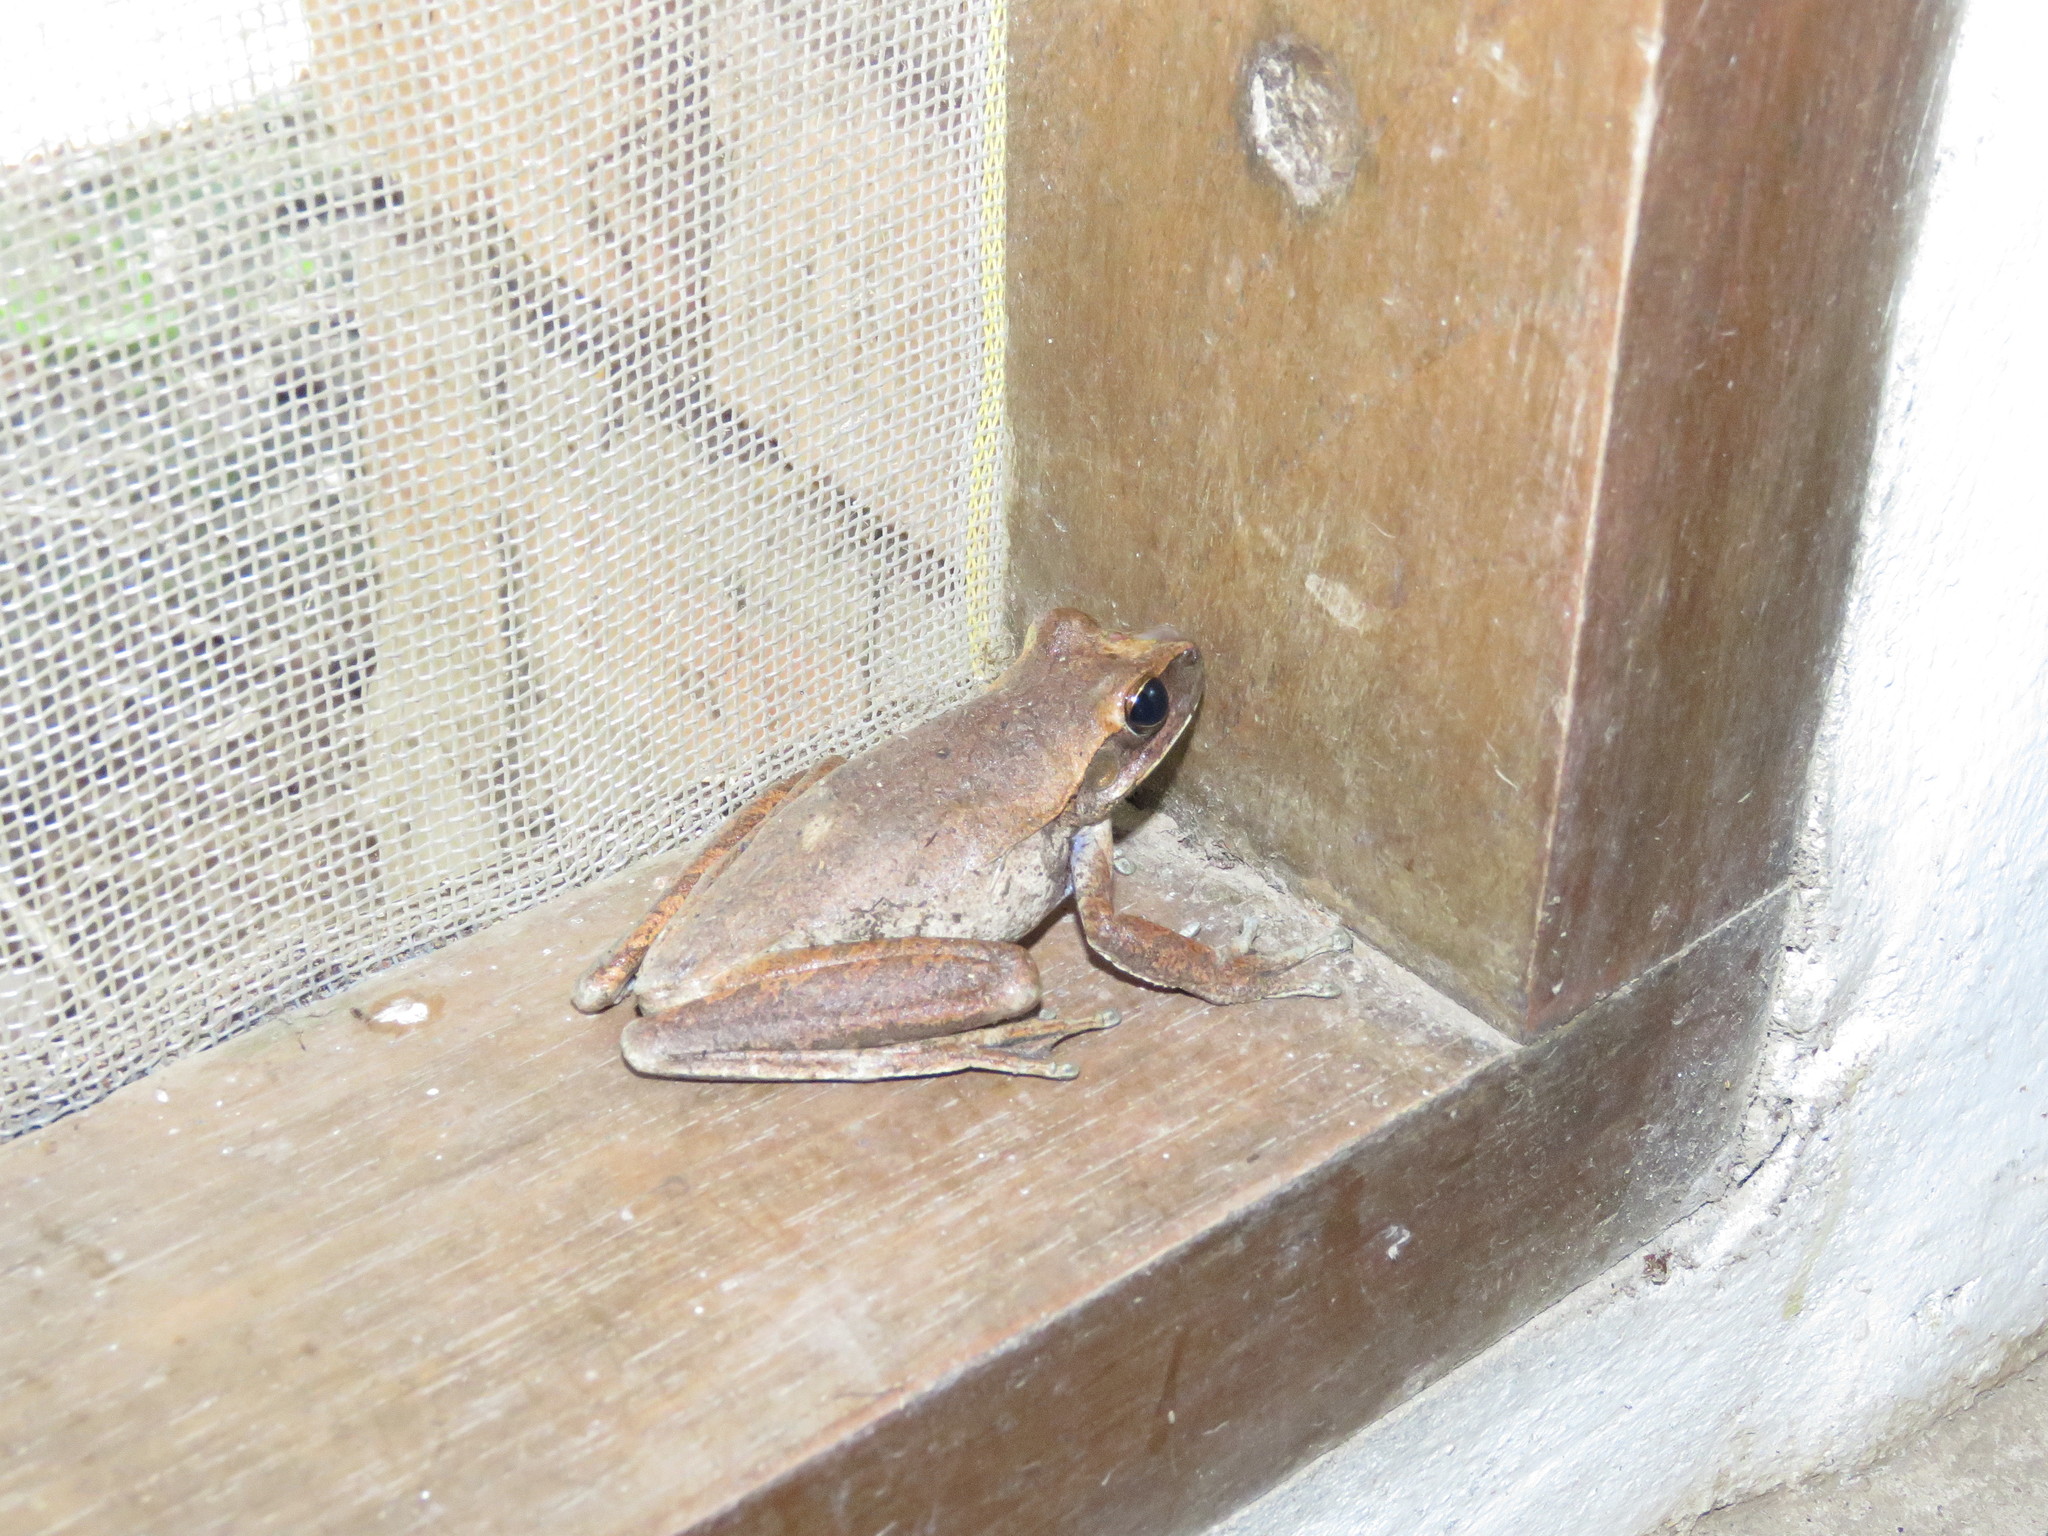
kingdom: Animalia
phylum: Chordata
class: Amphibia
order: Anura
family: Hylidae
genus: Boana
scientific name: Boana raniceps
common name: Chaco treefrog
